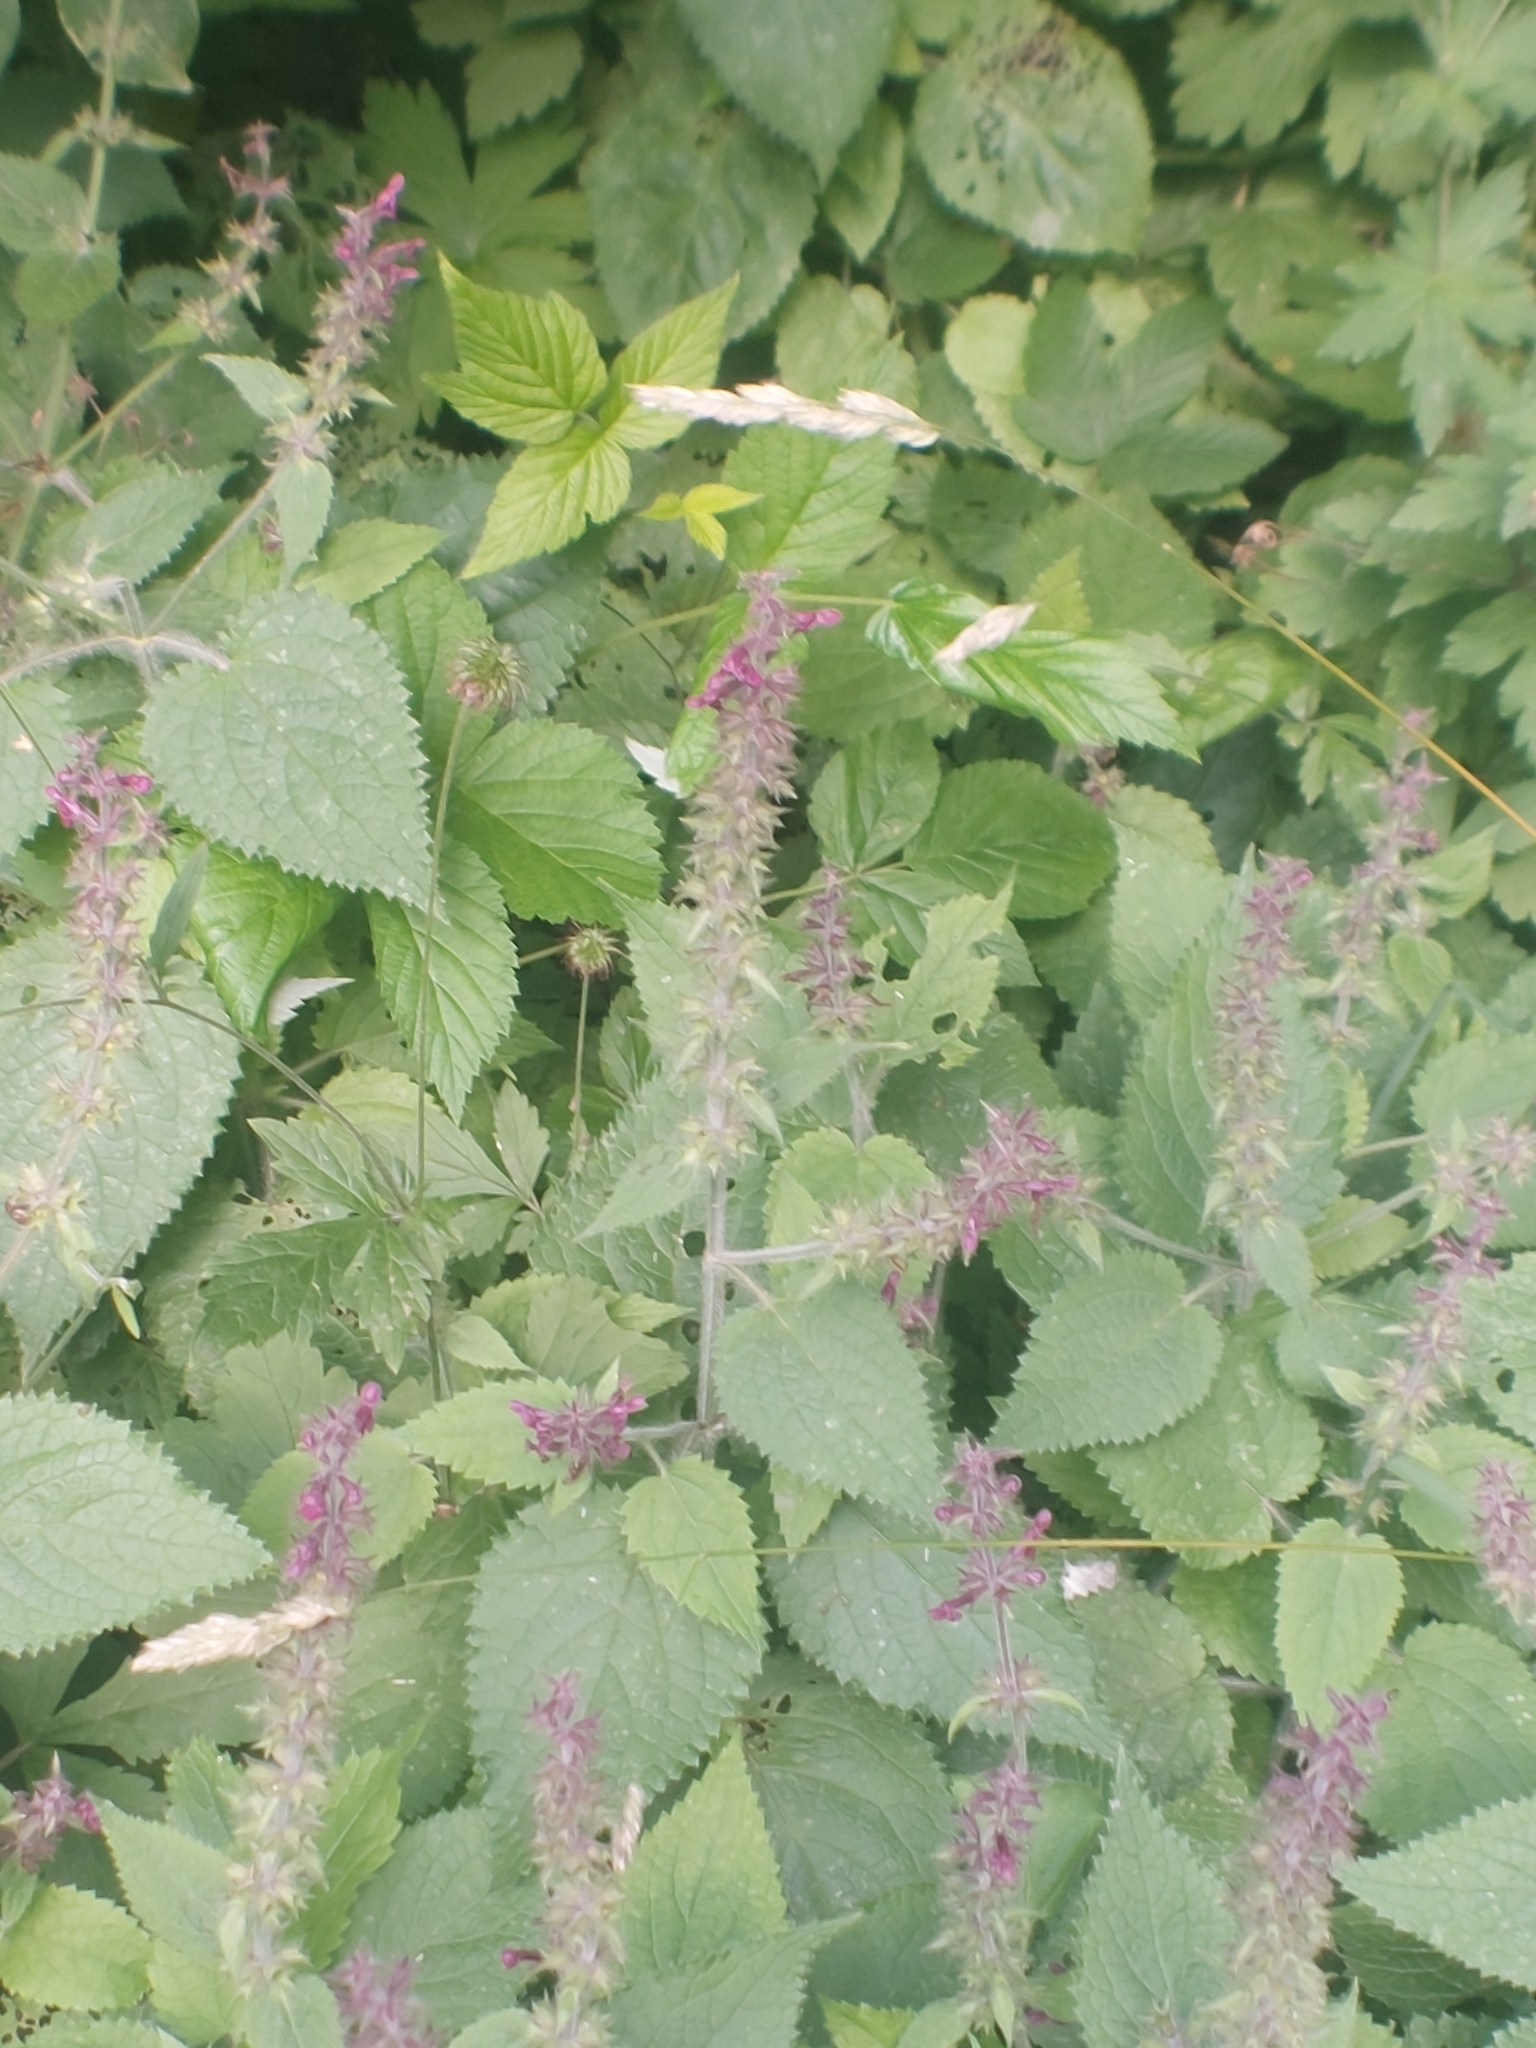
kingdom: Plantae
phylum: Tracheophyta
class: Magnoliopsida
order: Lamiales
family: Lamiaceae
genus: Stachys
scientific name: Stachys sylvatica
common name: Hedge woundwort
